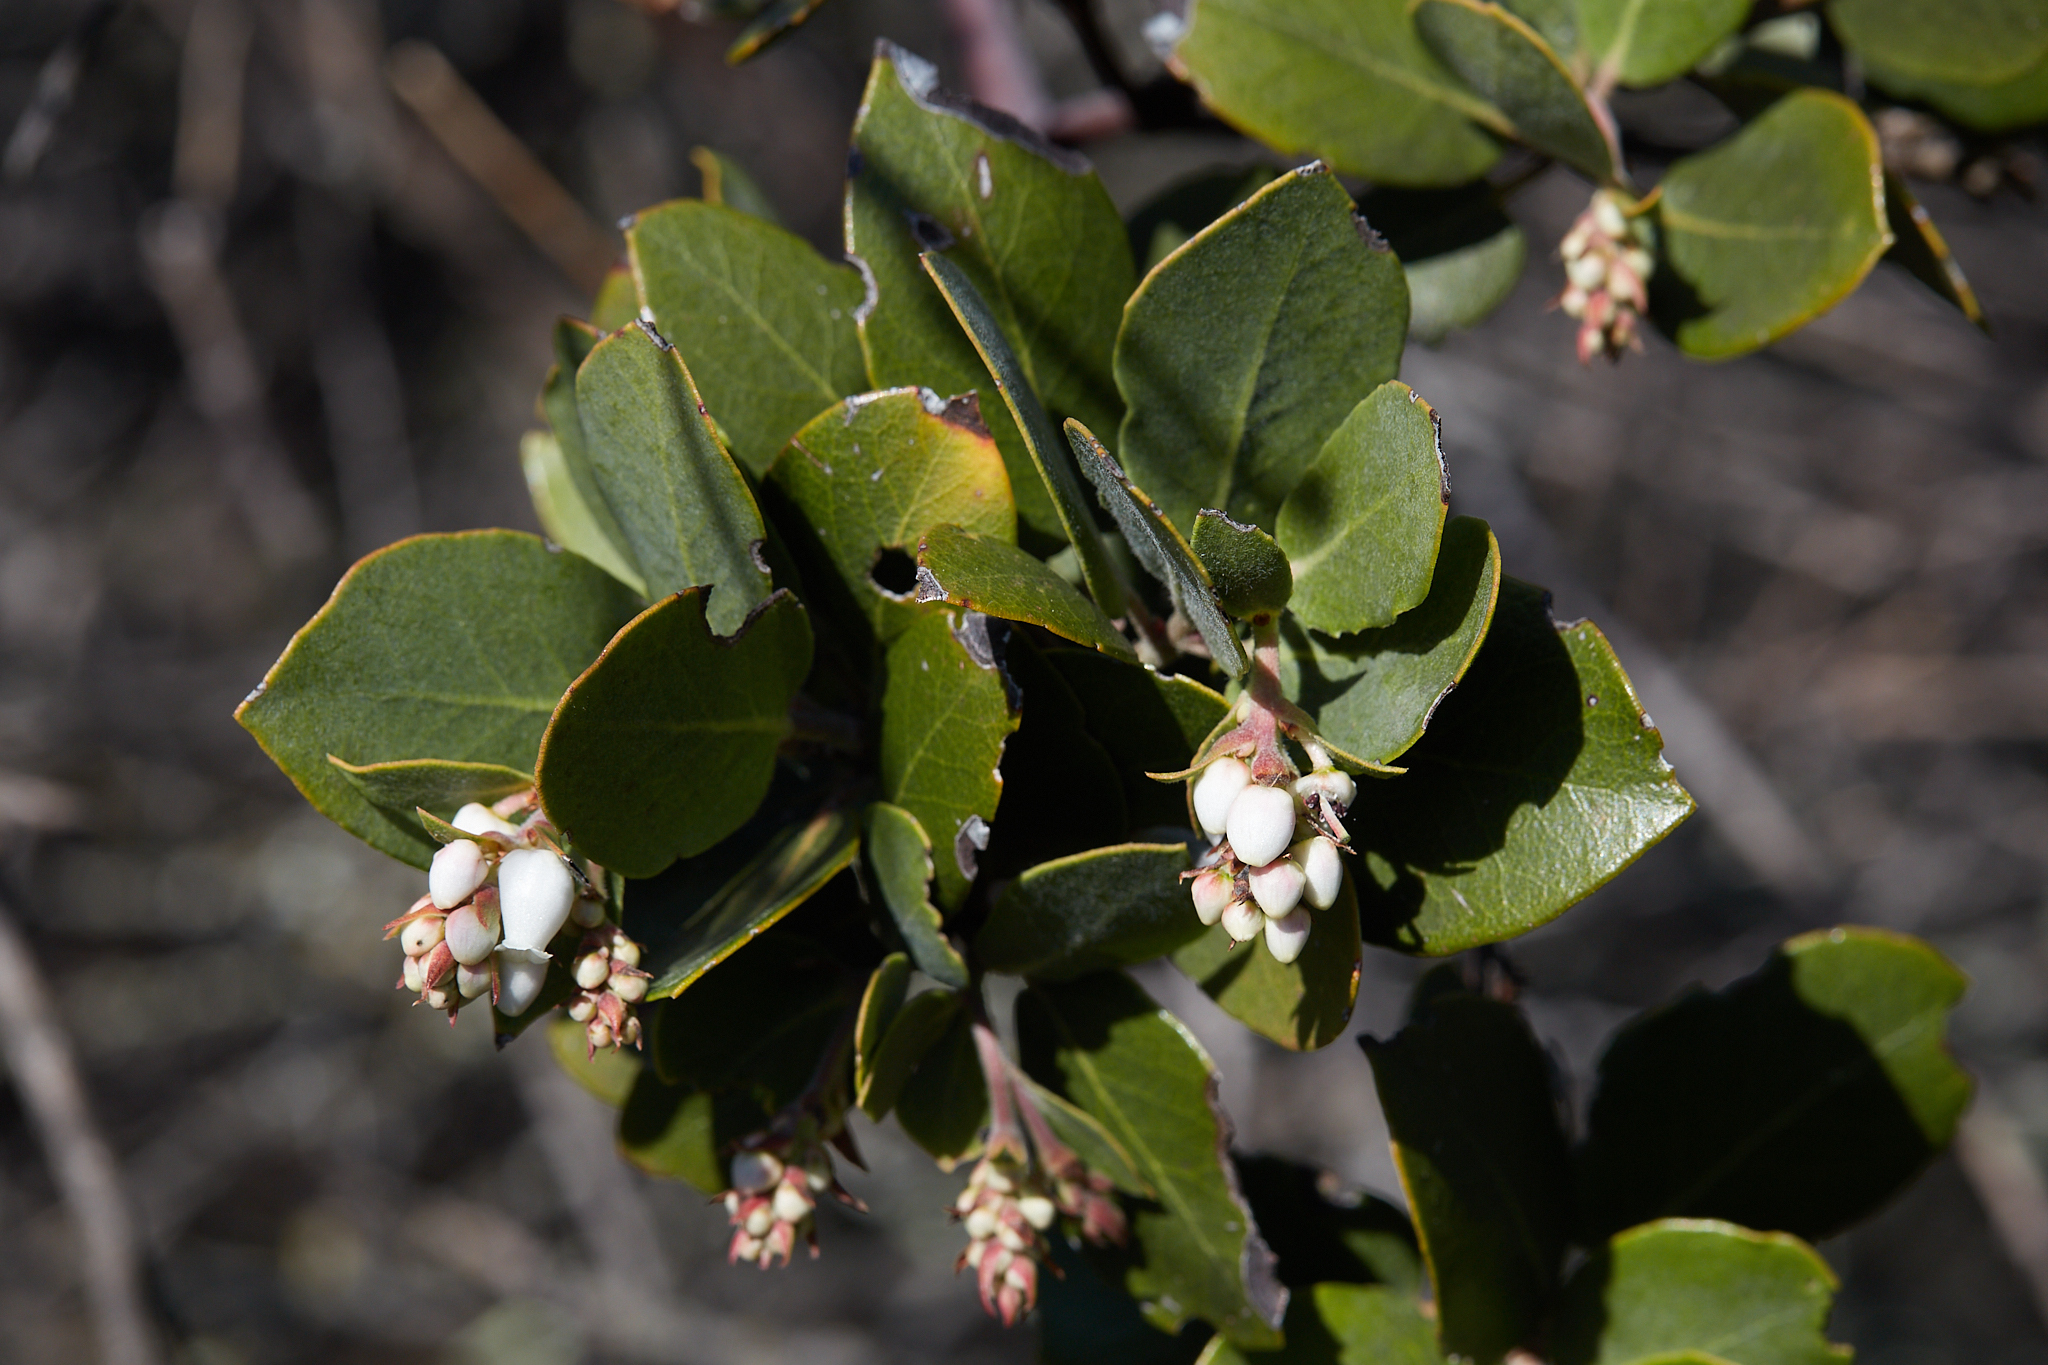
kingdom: Plantae
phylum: Tracheophyta
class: Magnoliopsida
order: Ericales
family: Ericaceae
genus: Arctostaphylos
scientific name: Arctostaphylos crustacea
